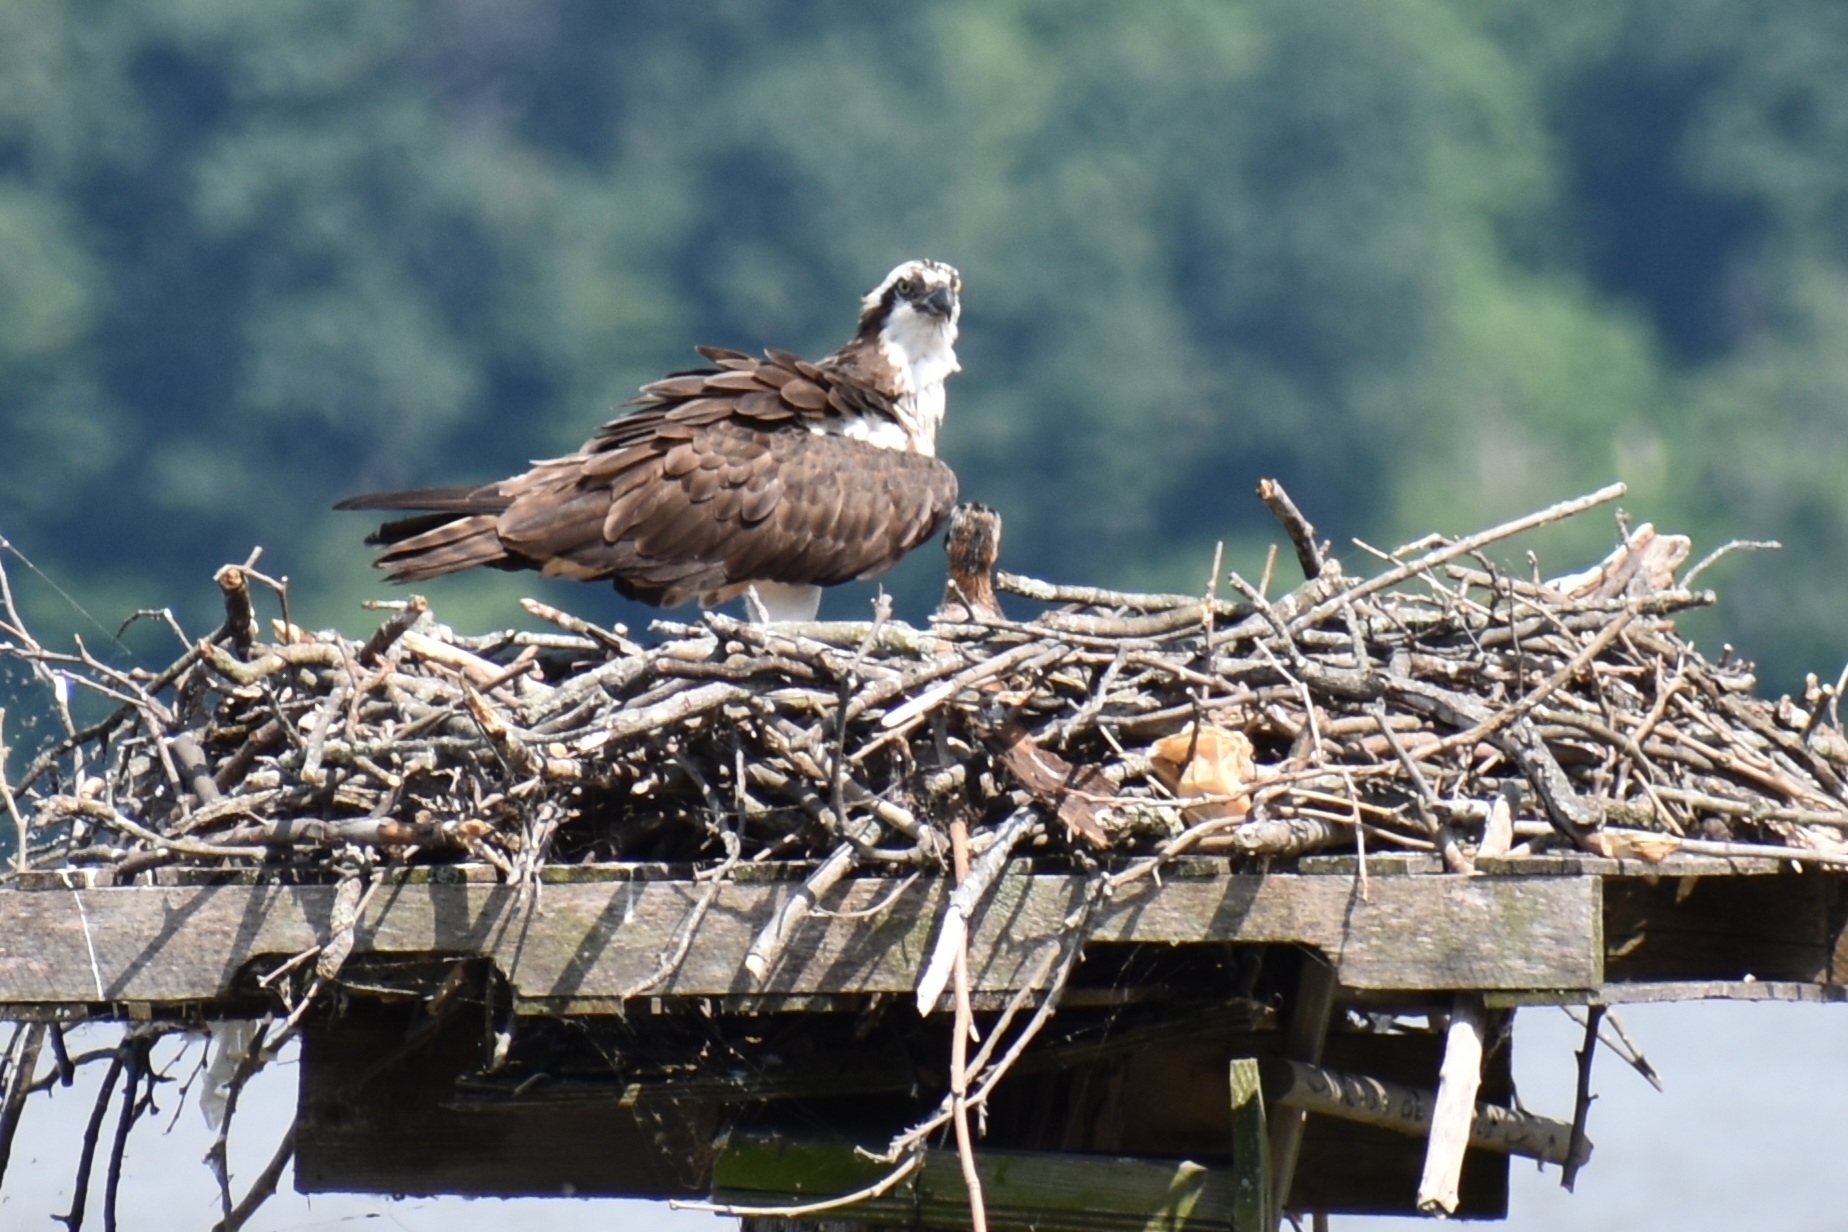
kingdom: Animalia
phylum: Chordata
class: Aves
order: Accipitriformes
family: Pandionidae
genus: Pandion
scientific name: Pandion haliaetus
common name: Osprey
